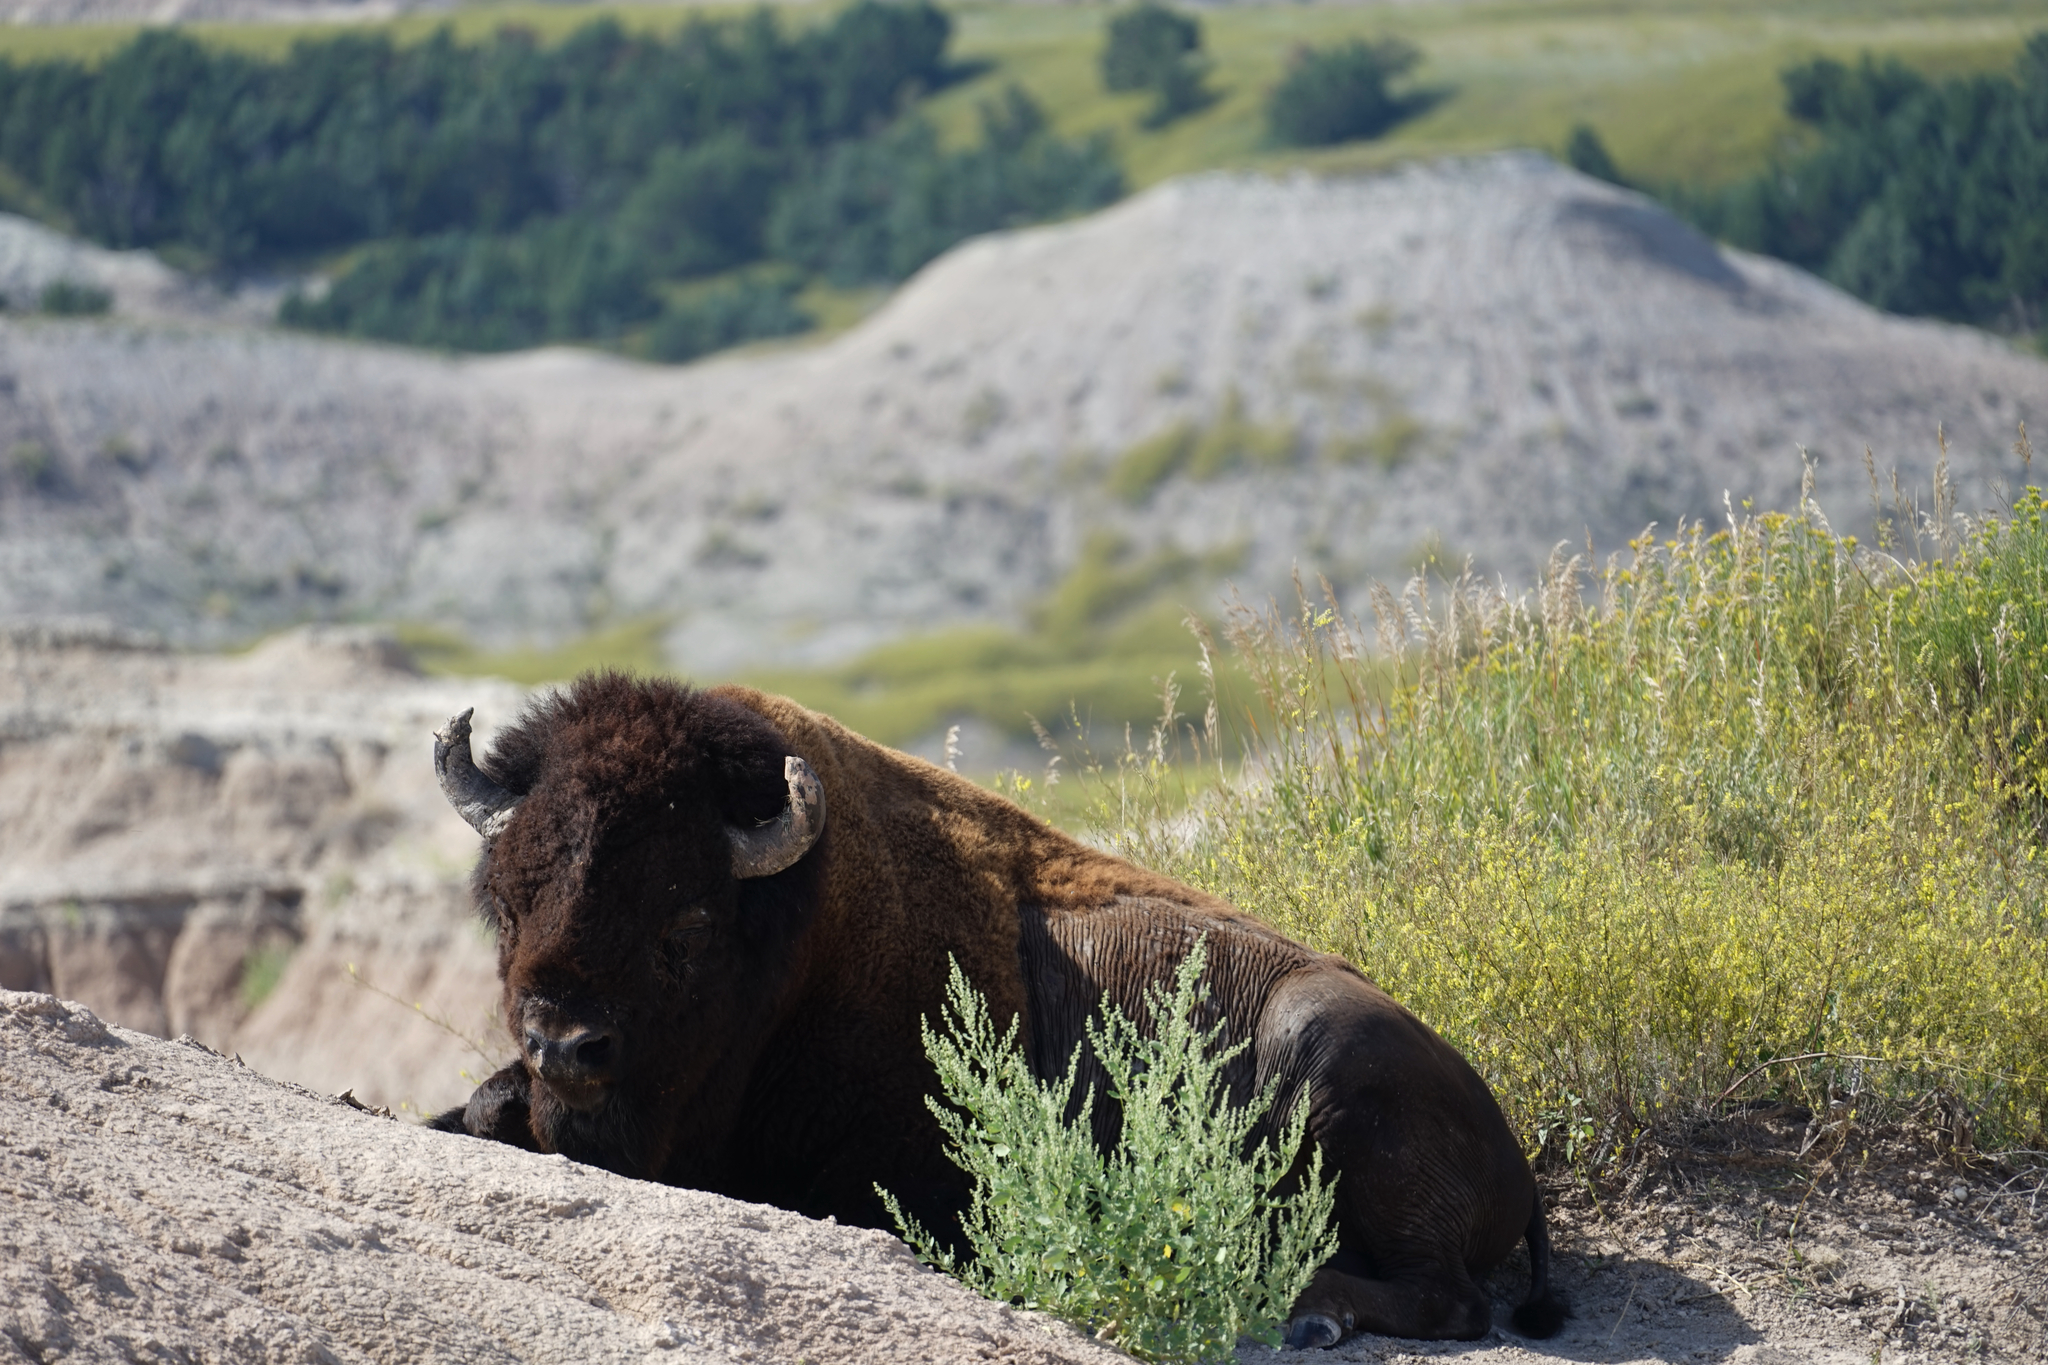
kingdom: Animalia
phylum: Chordata
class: Mammalia
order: Artiodactyla
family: Bovidae
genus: Bison
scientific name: Bison bison
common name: American bison
